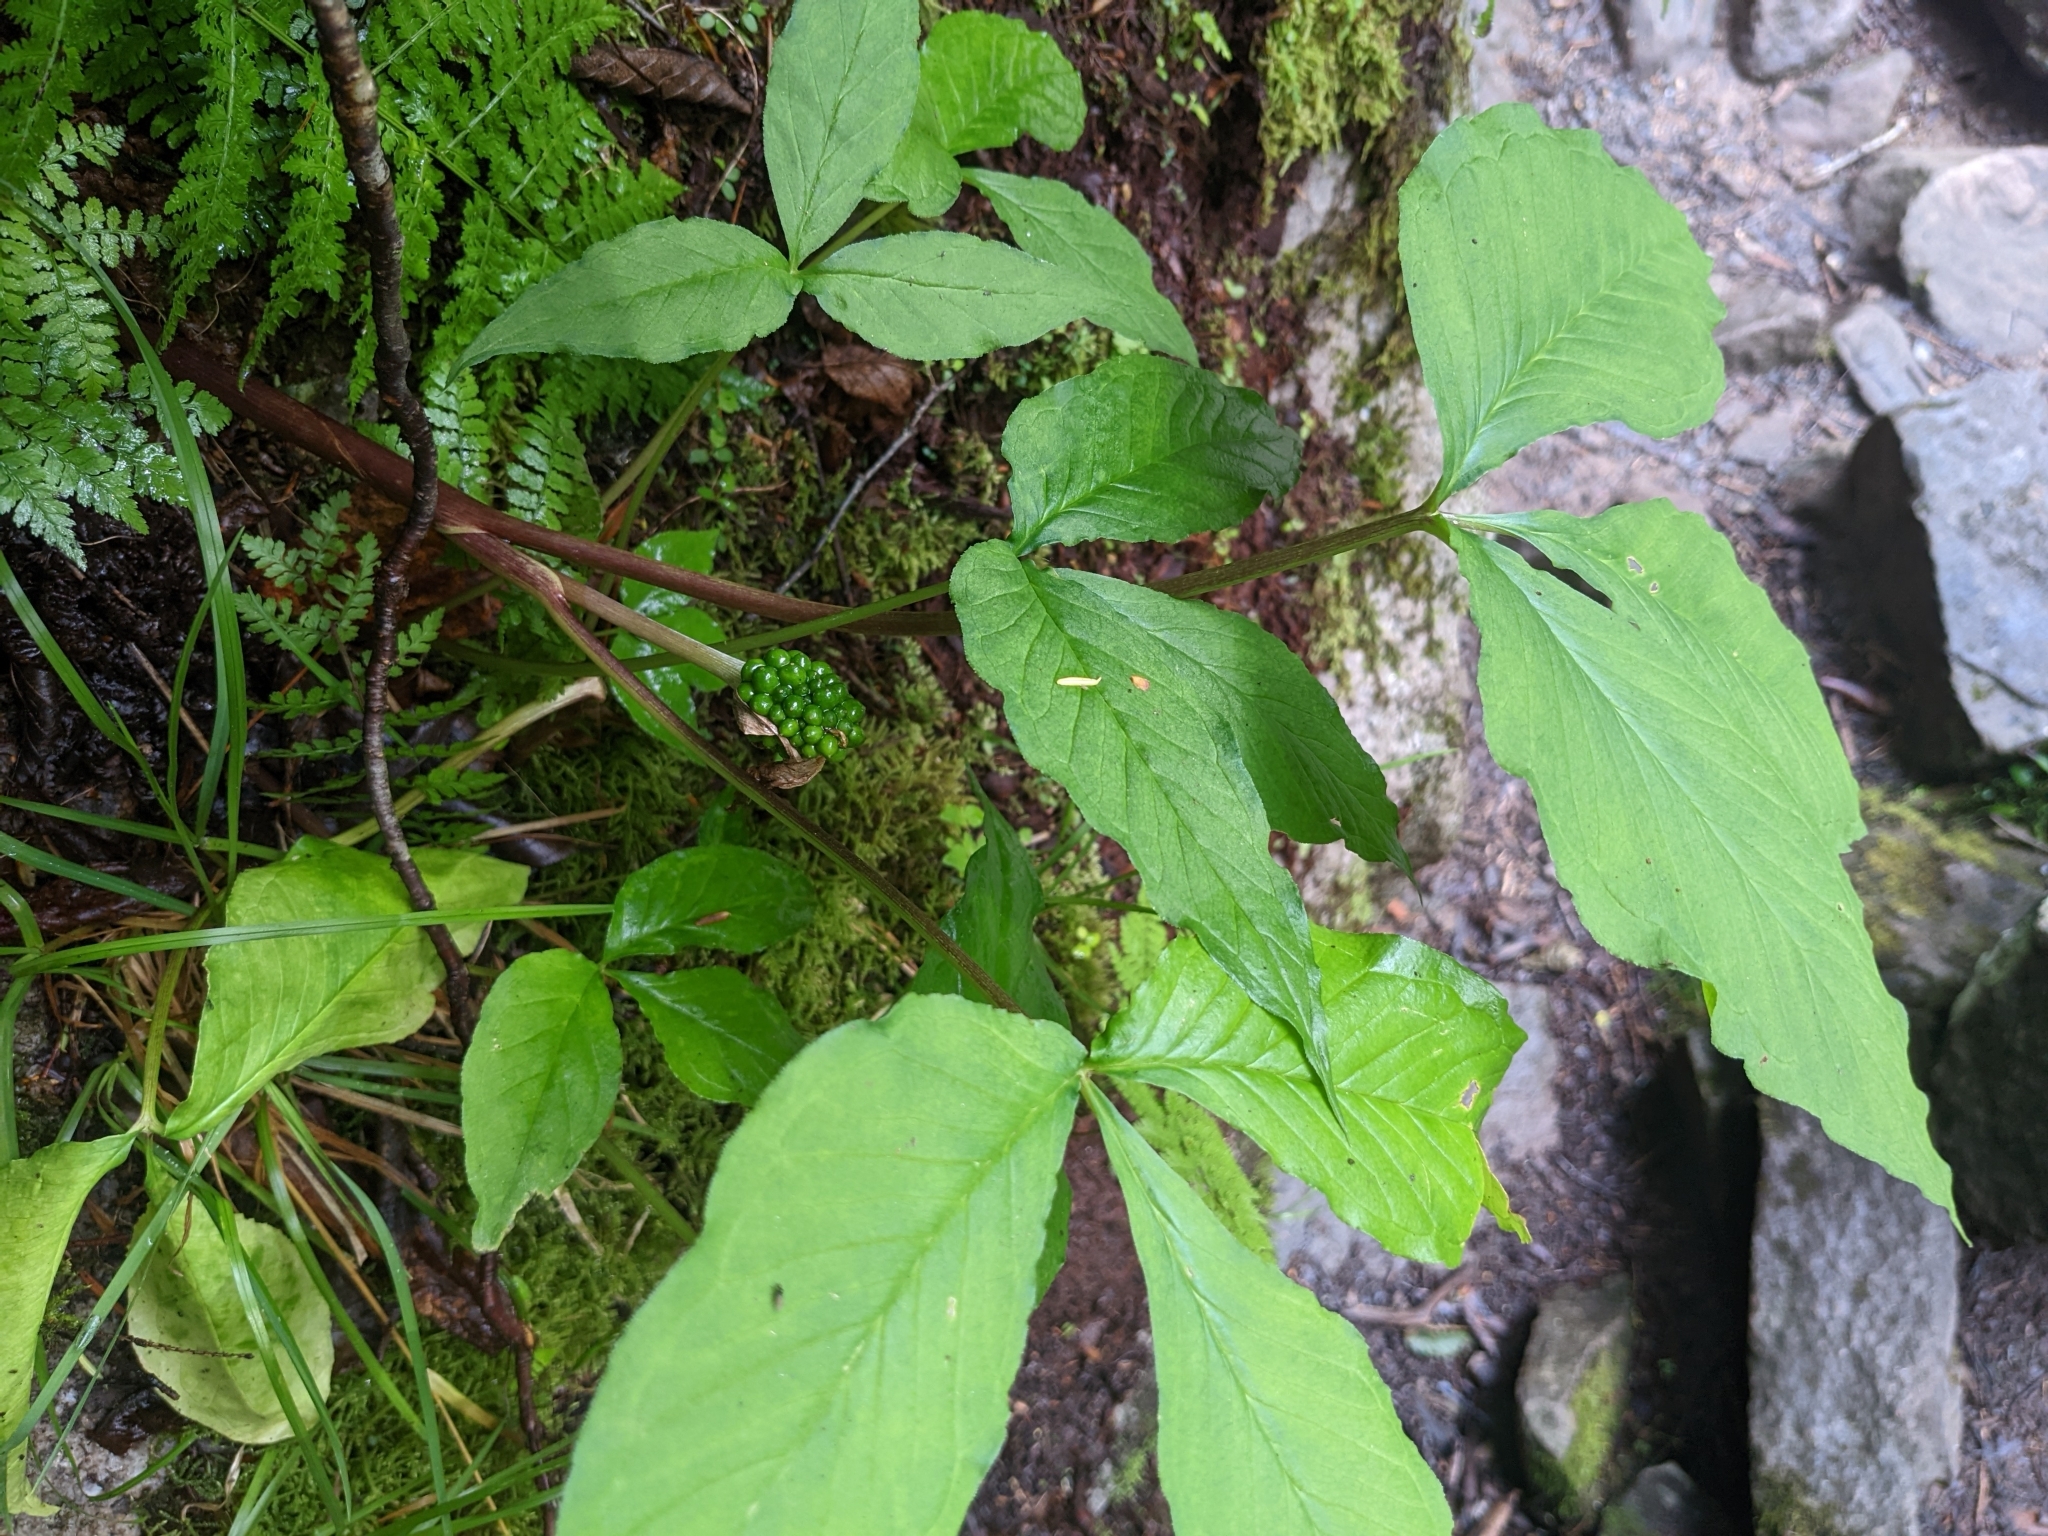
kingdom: Plantae
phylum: Tracheophyta
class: Liliopsida
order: Alismatales
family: Araceae
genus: Arisaema
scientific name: Arisaema triphyllum
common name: Jack-in-the-pulpit
